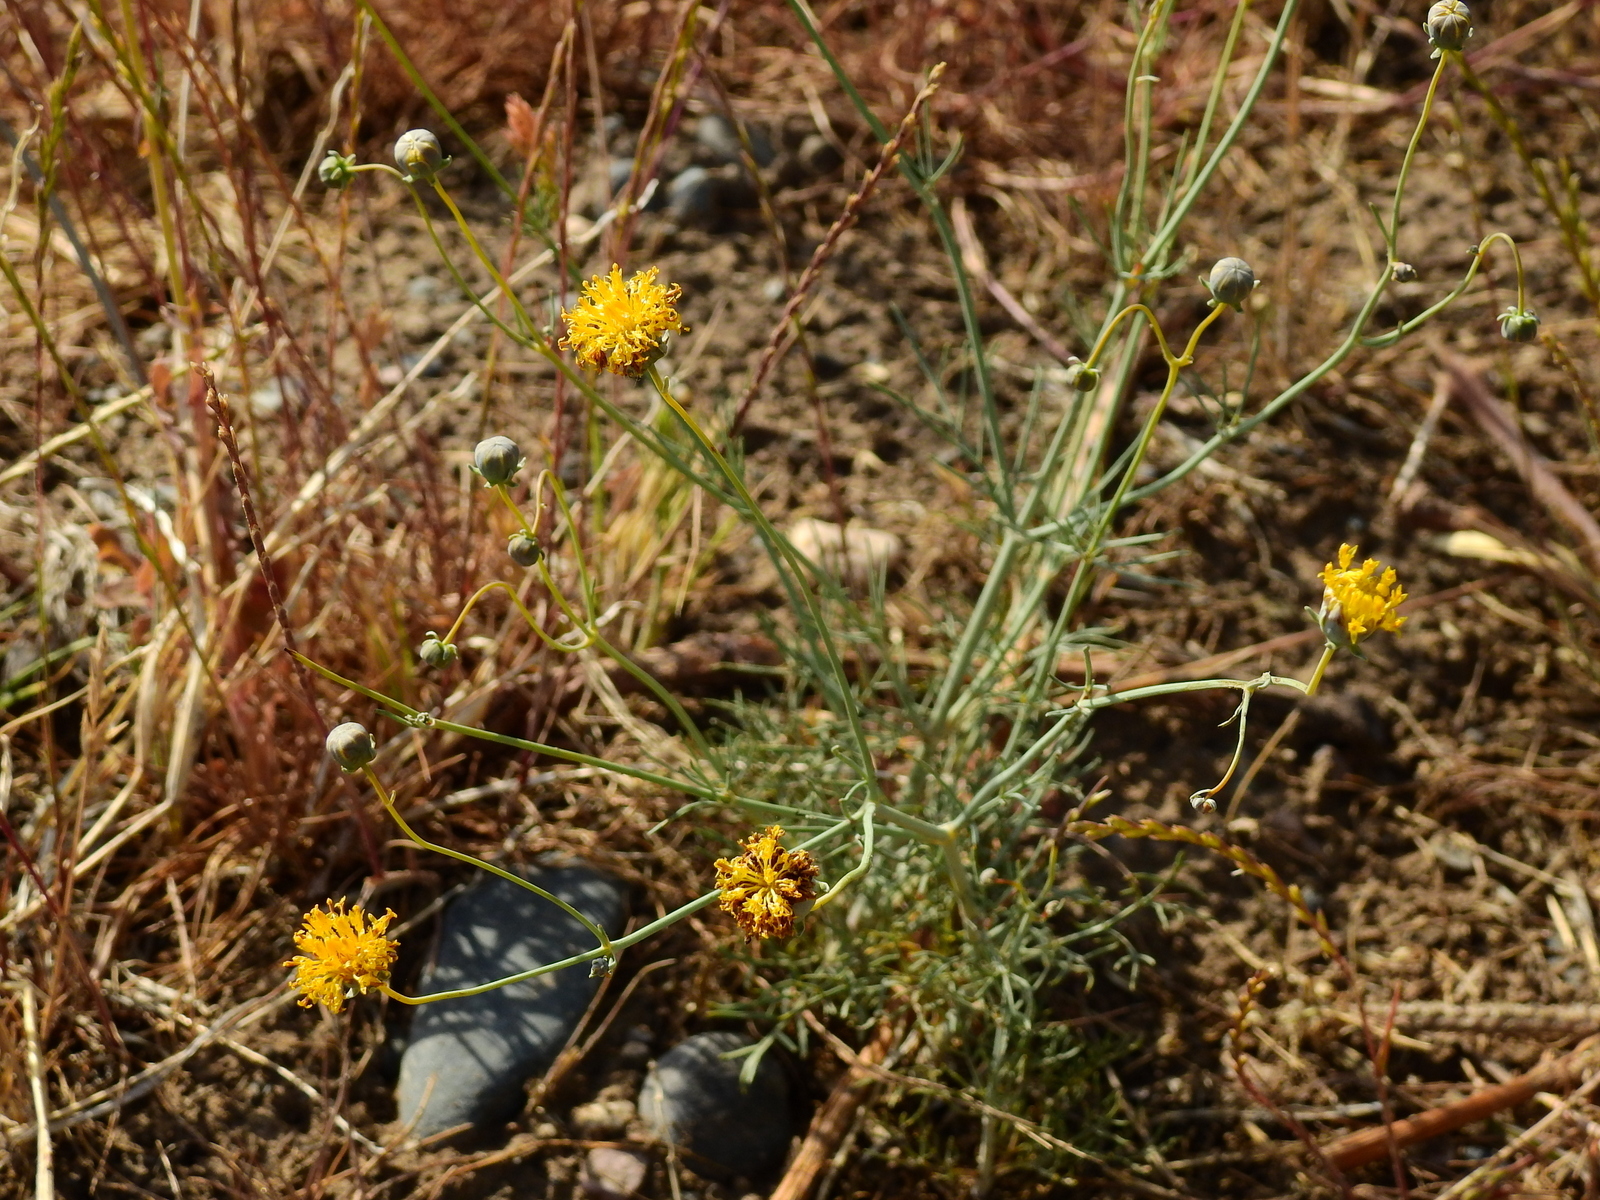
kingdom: Plantae
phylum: Tracheophyta
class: Magnoliopsida
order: Asterales
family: Asteraceae
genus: Thelesperma
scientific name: Thelesperma megapotamicum
